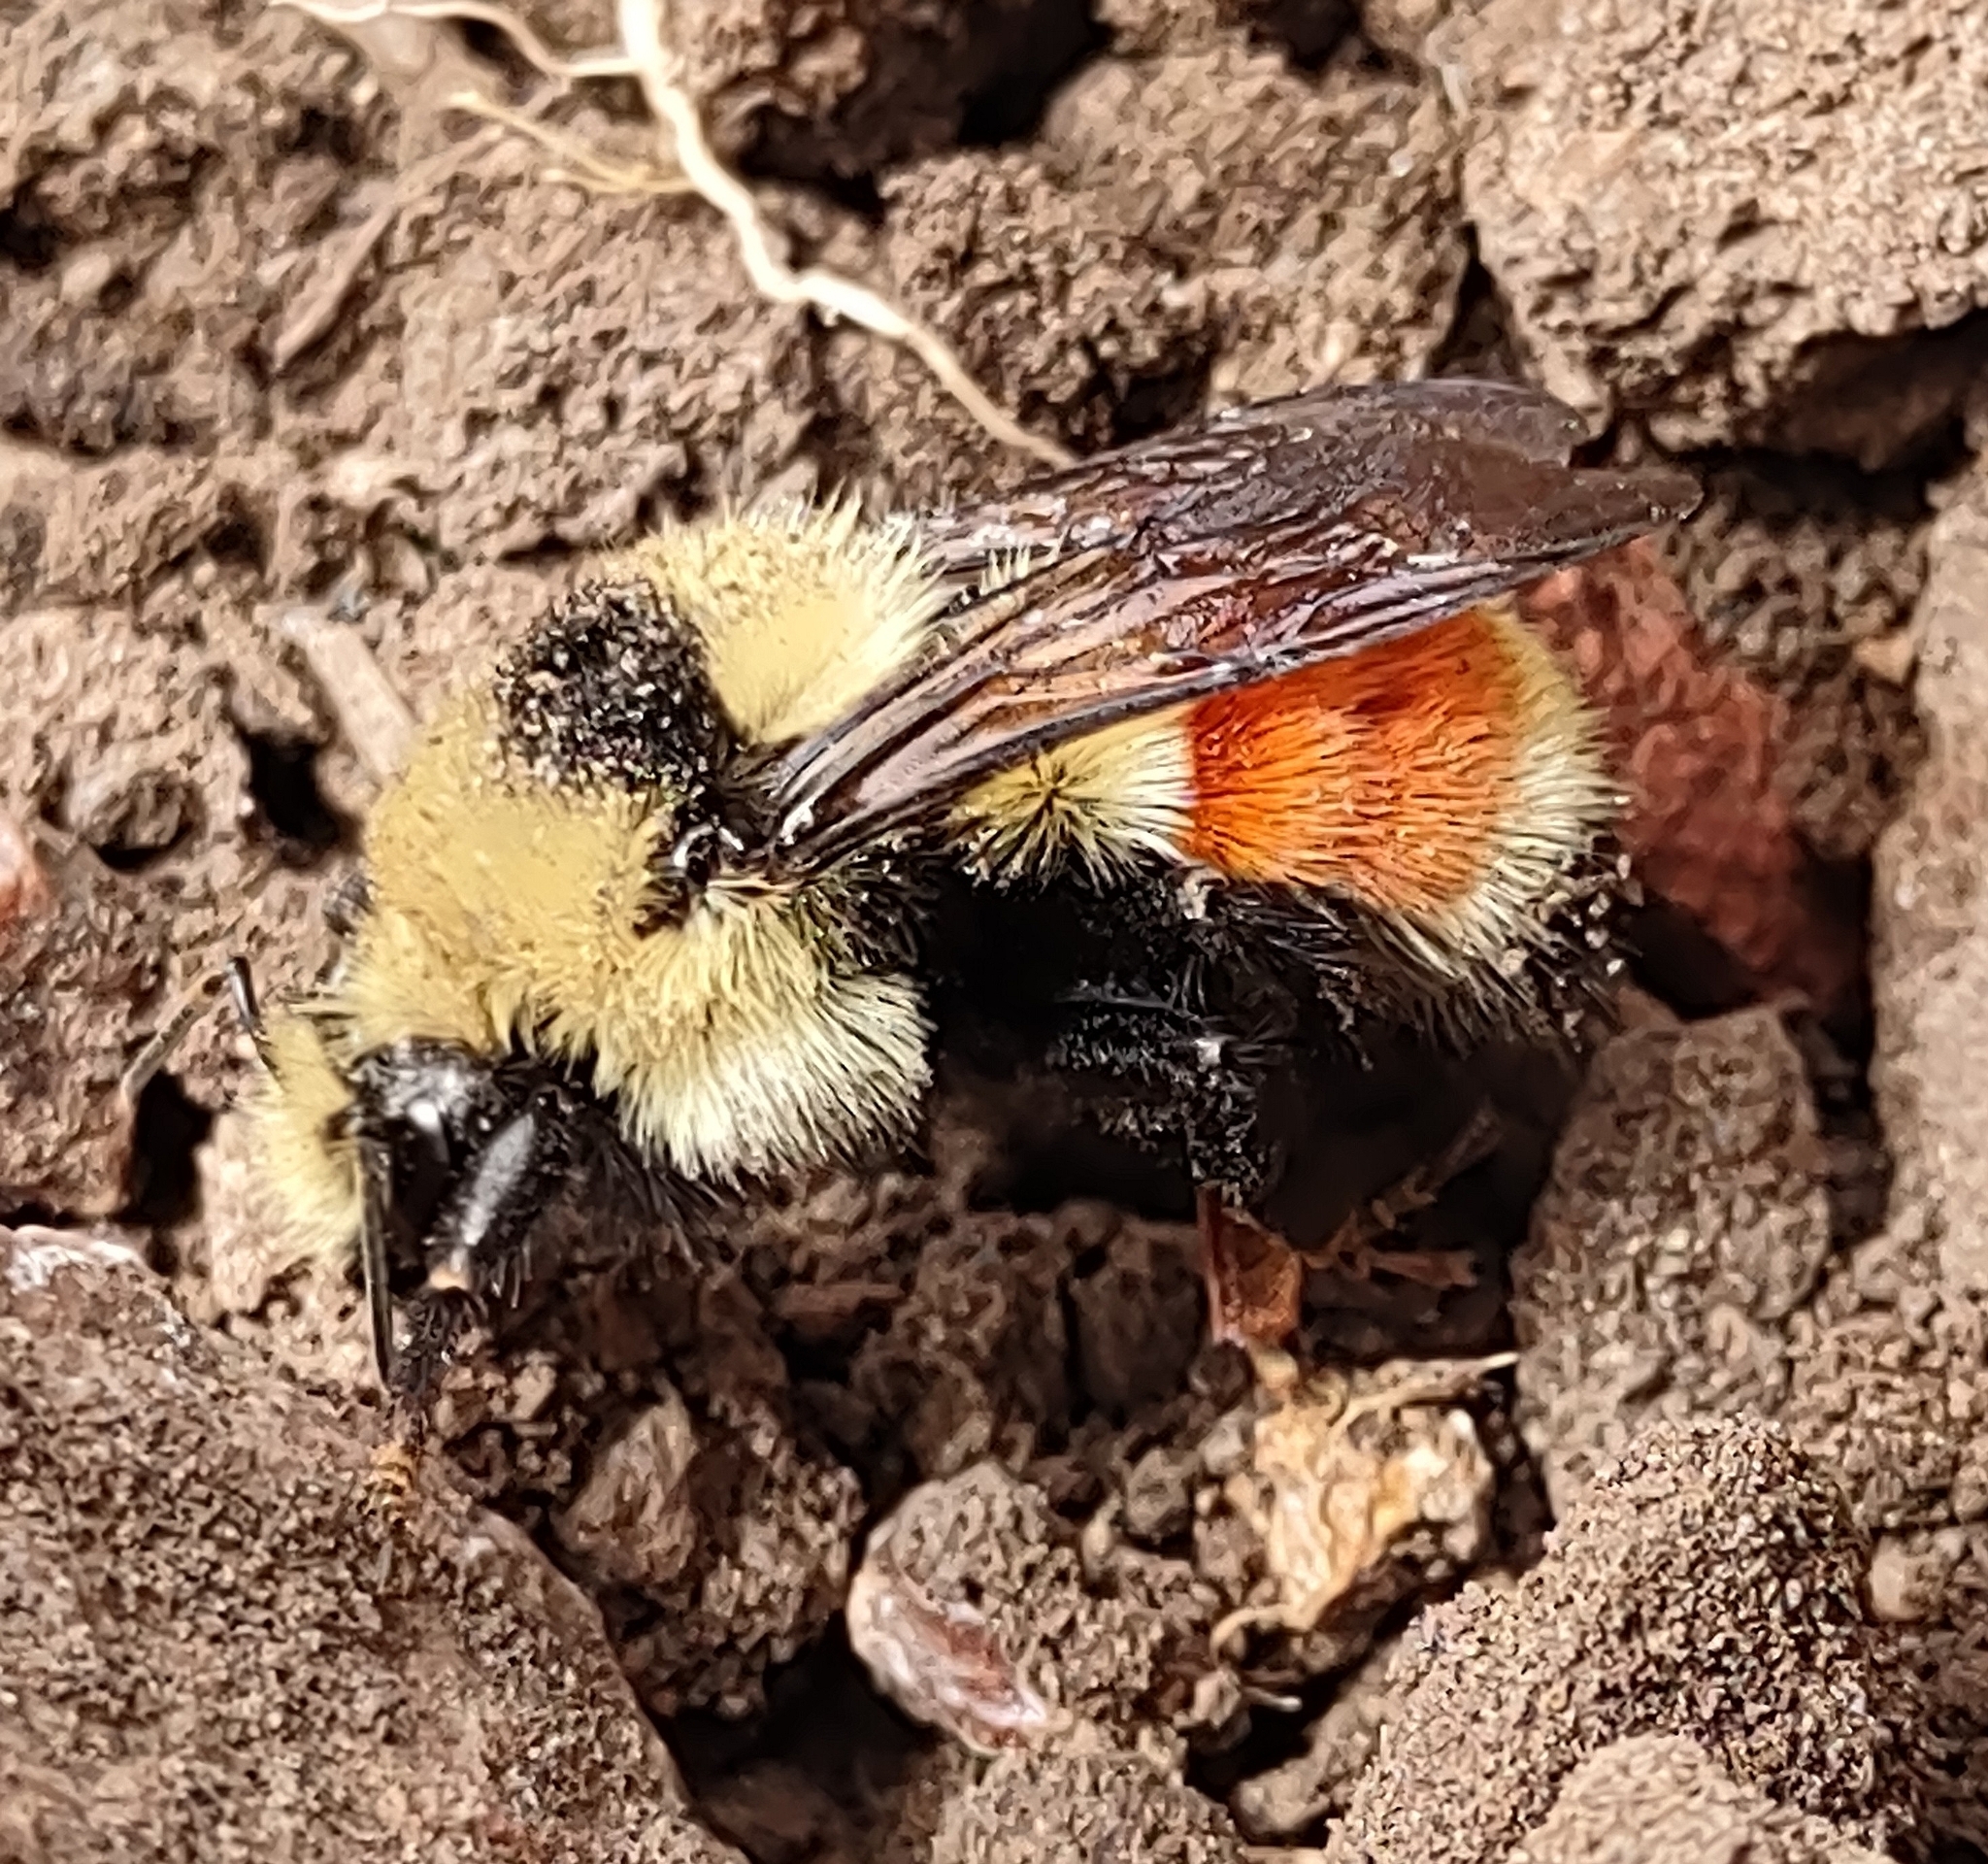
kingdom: Animalia
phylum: Arthropoda
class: Insecta
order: Hymenoptera
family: Apidae
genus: Bombus
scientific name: Bombus huntii
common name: Hunt bumble bee
